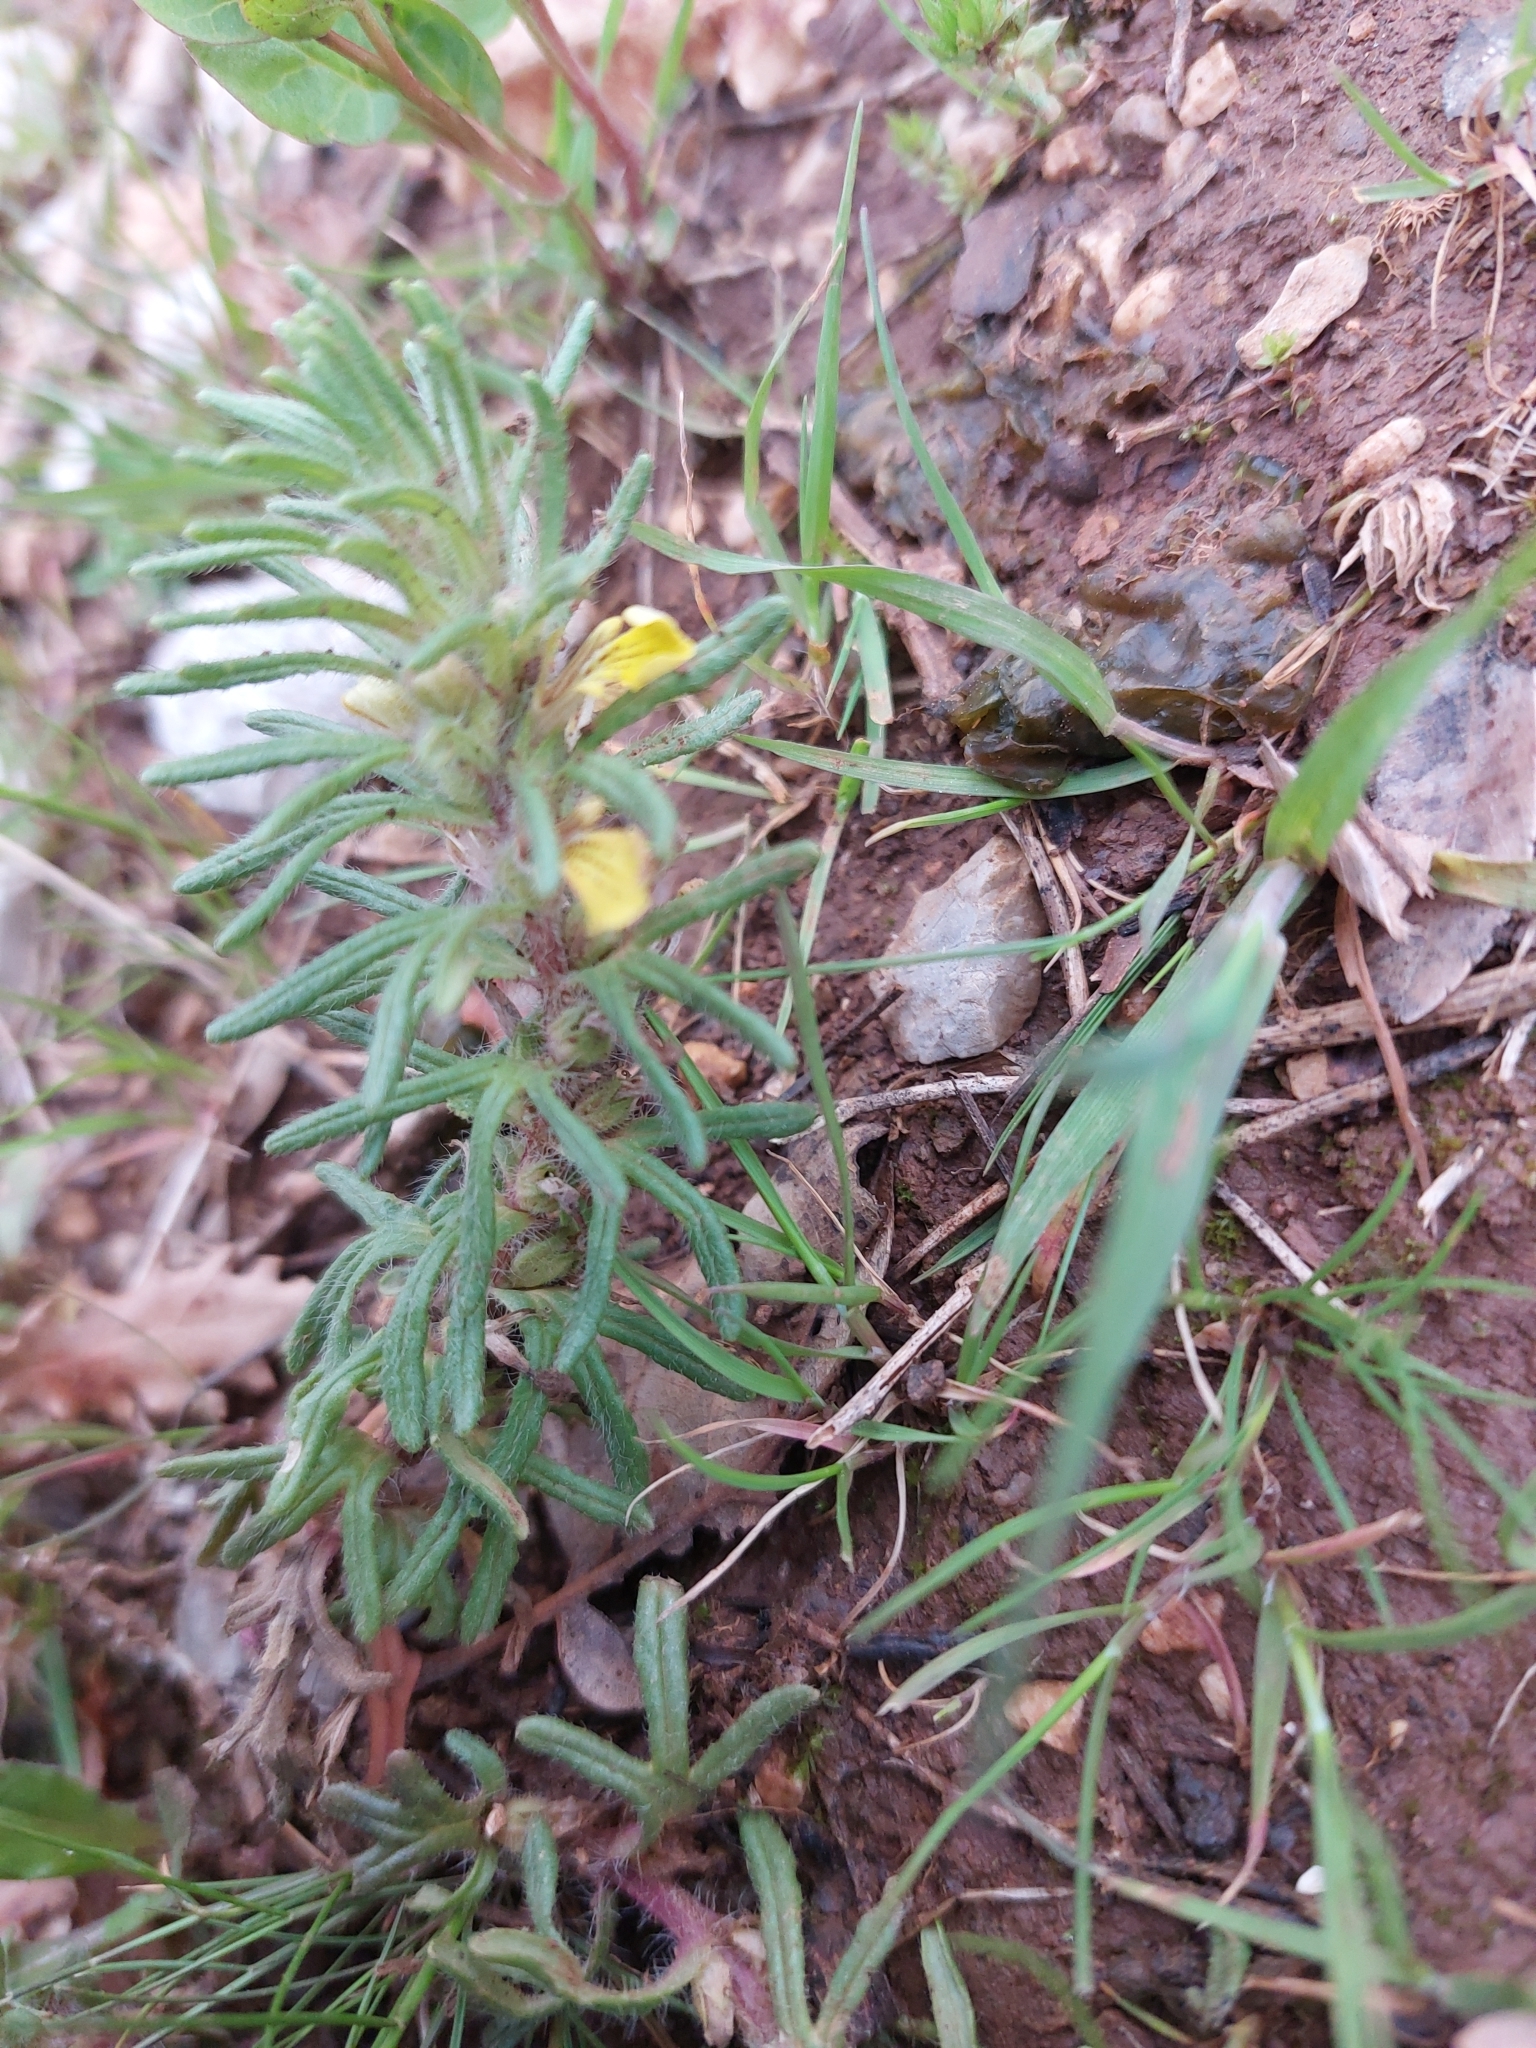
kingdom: Plantae
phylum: Tracheophyta
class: Magnoliopsida
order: Lamiales
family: Lamiaceae
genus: Ajuga
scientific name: Ajuga chamaepitys
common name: Ground-pine
